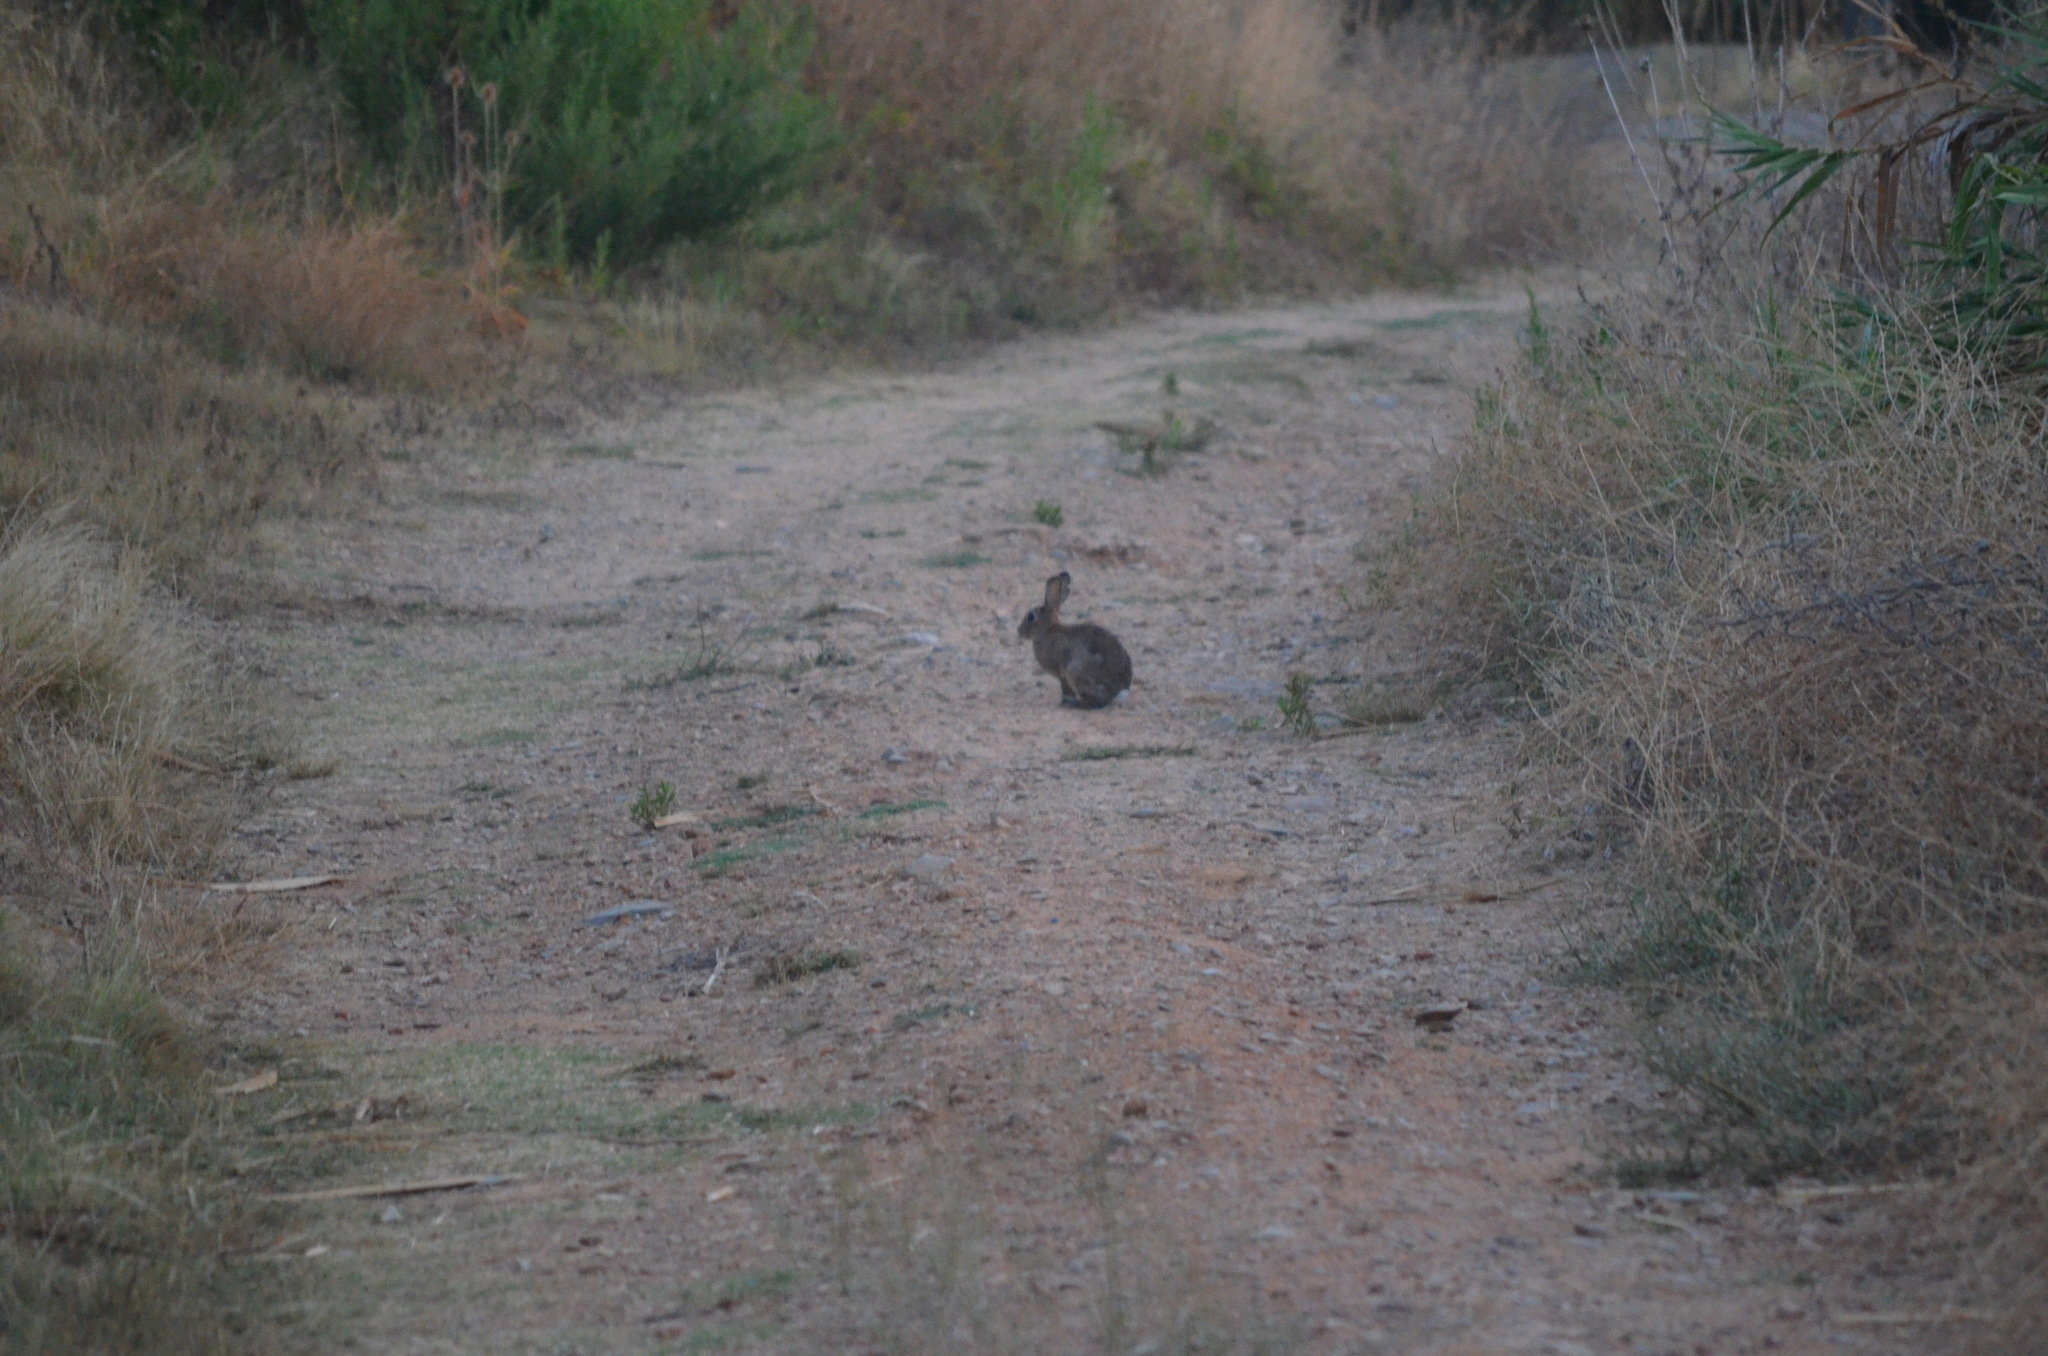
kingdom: Animalia
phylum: Chordata
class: Mammalia
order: Lagomorpha
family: Leporidae
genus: Oryctolagus
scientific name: Oryctolagus cuniculus
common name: European rabbit
